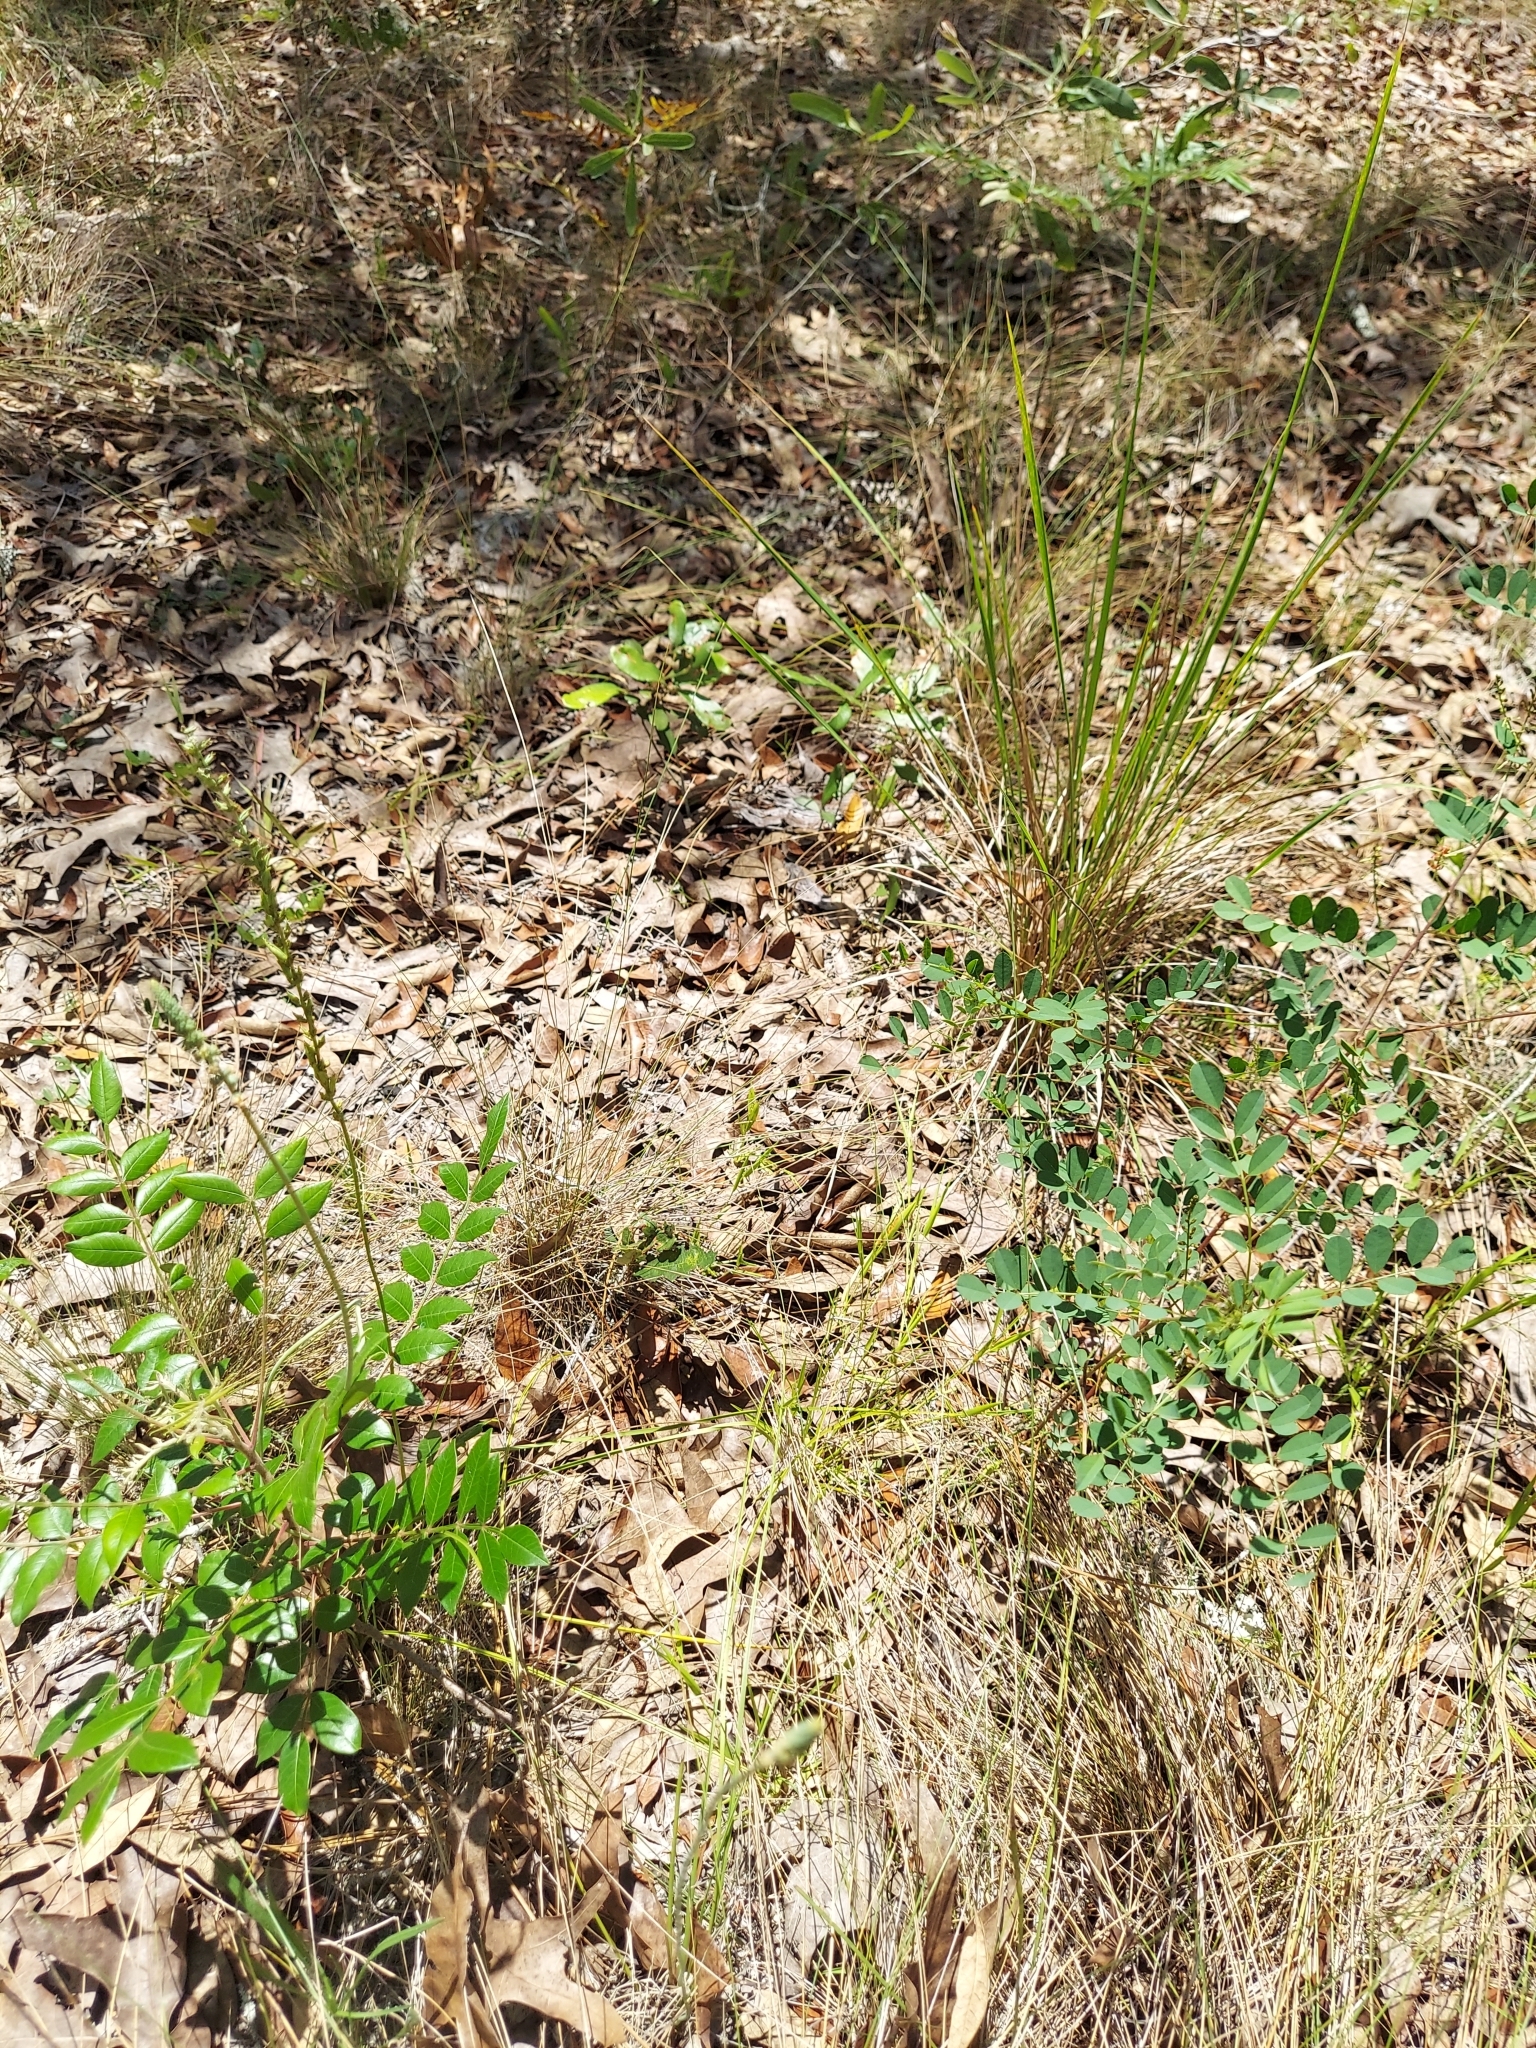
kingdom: Plantae
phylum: Tracheophyta
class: Liliopsida
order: Liliales
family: Melanthiaceae
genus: Schoenocaulon
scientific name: Schoenocaulon dubium
